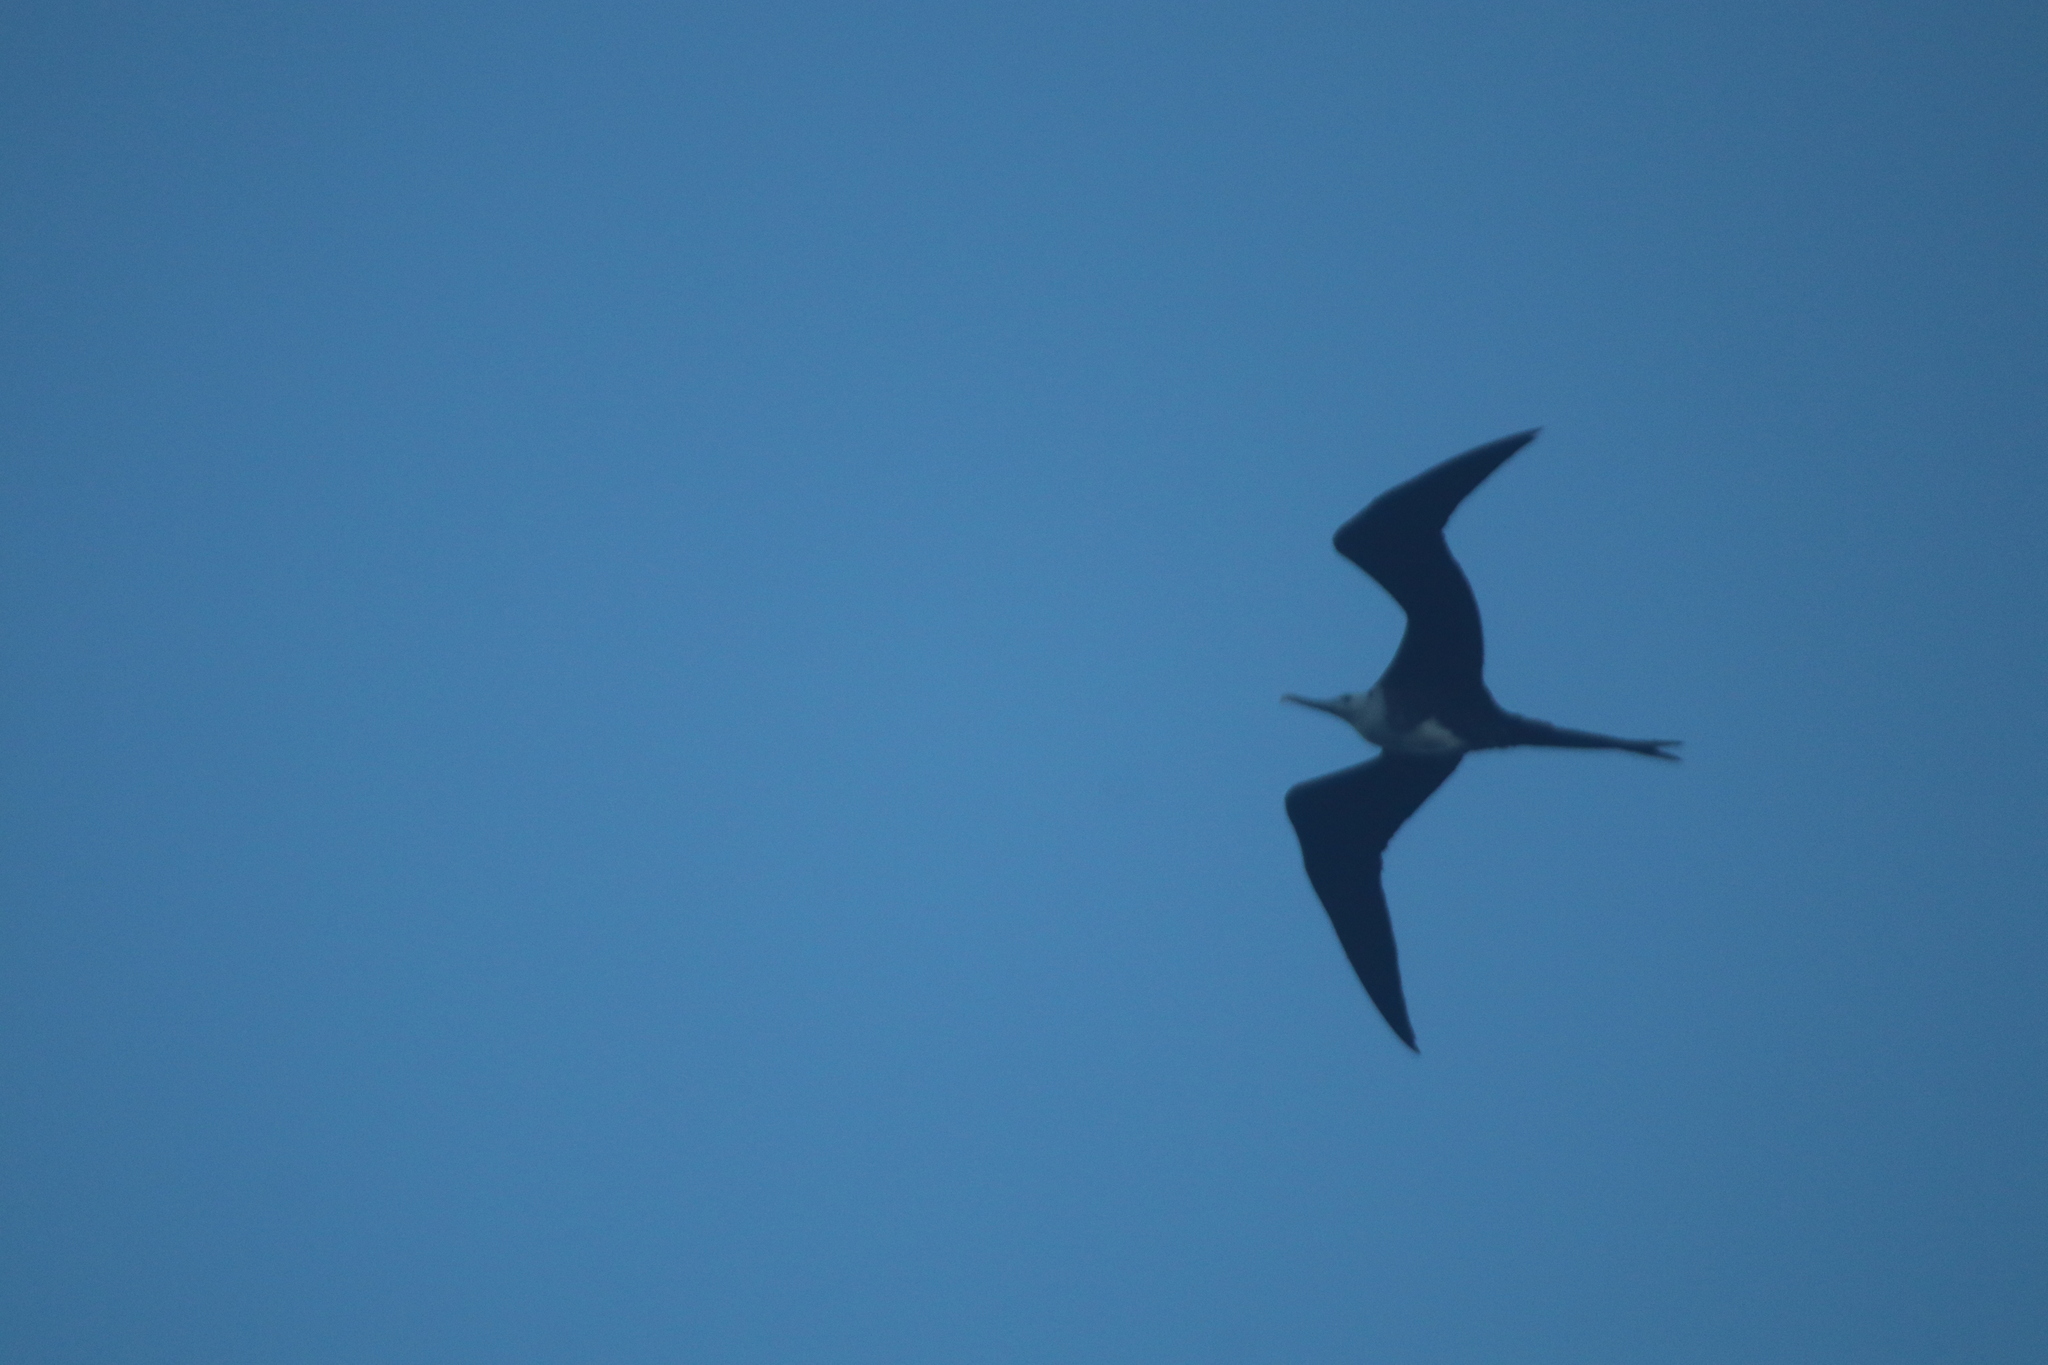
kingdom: Animalia
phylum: Chordata
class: Aves
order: Suliformes
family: Fregatidae
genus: Fregata
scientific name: Fregata magnificens
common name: Magnificent frigatebird
